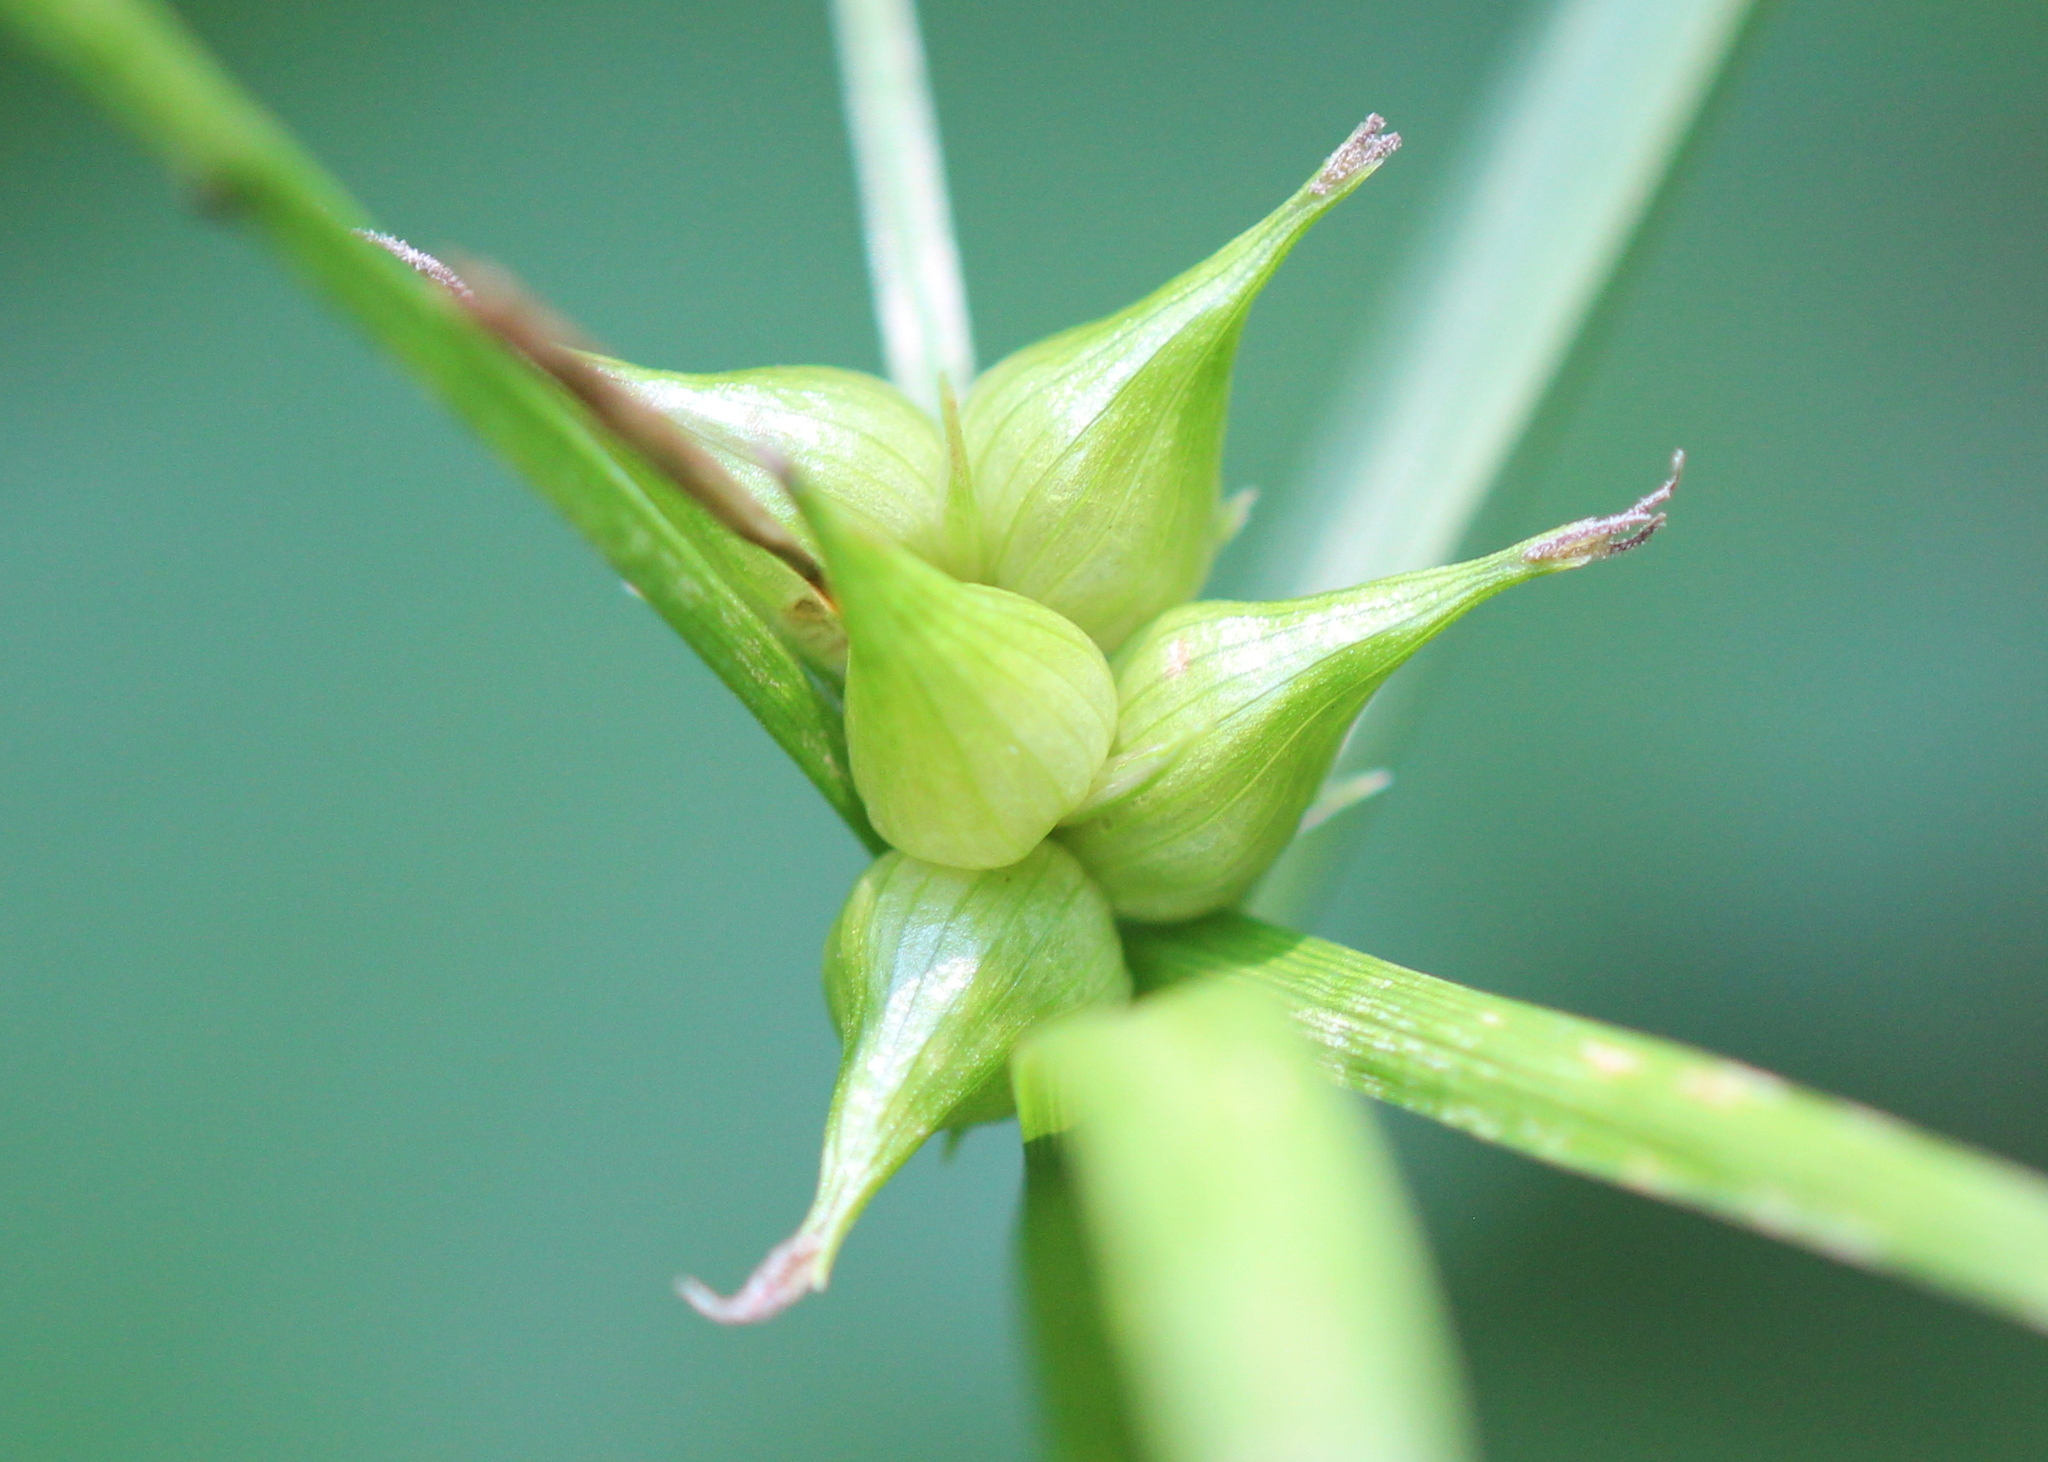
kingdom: Plantae
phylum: Tracheophyta
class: Liliopsida
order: Poales
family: Cyperaceae
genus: Carex
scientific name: Carex intumescens
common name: Greater bladder sedge
